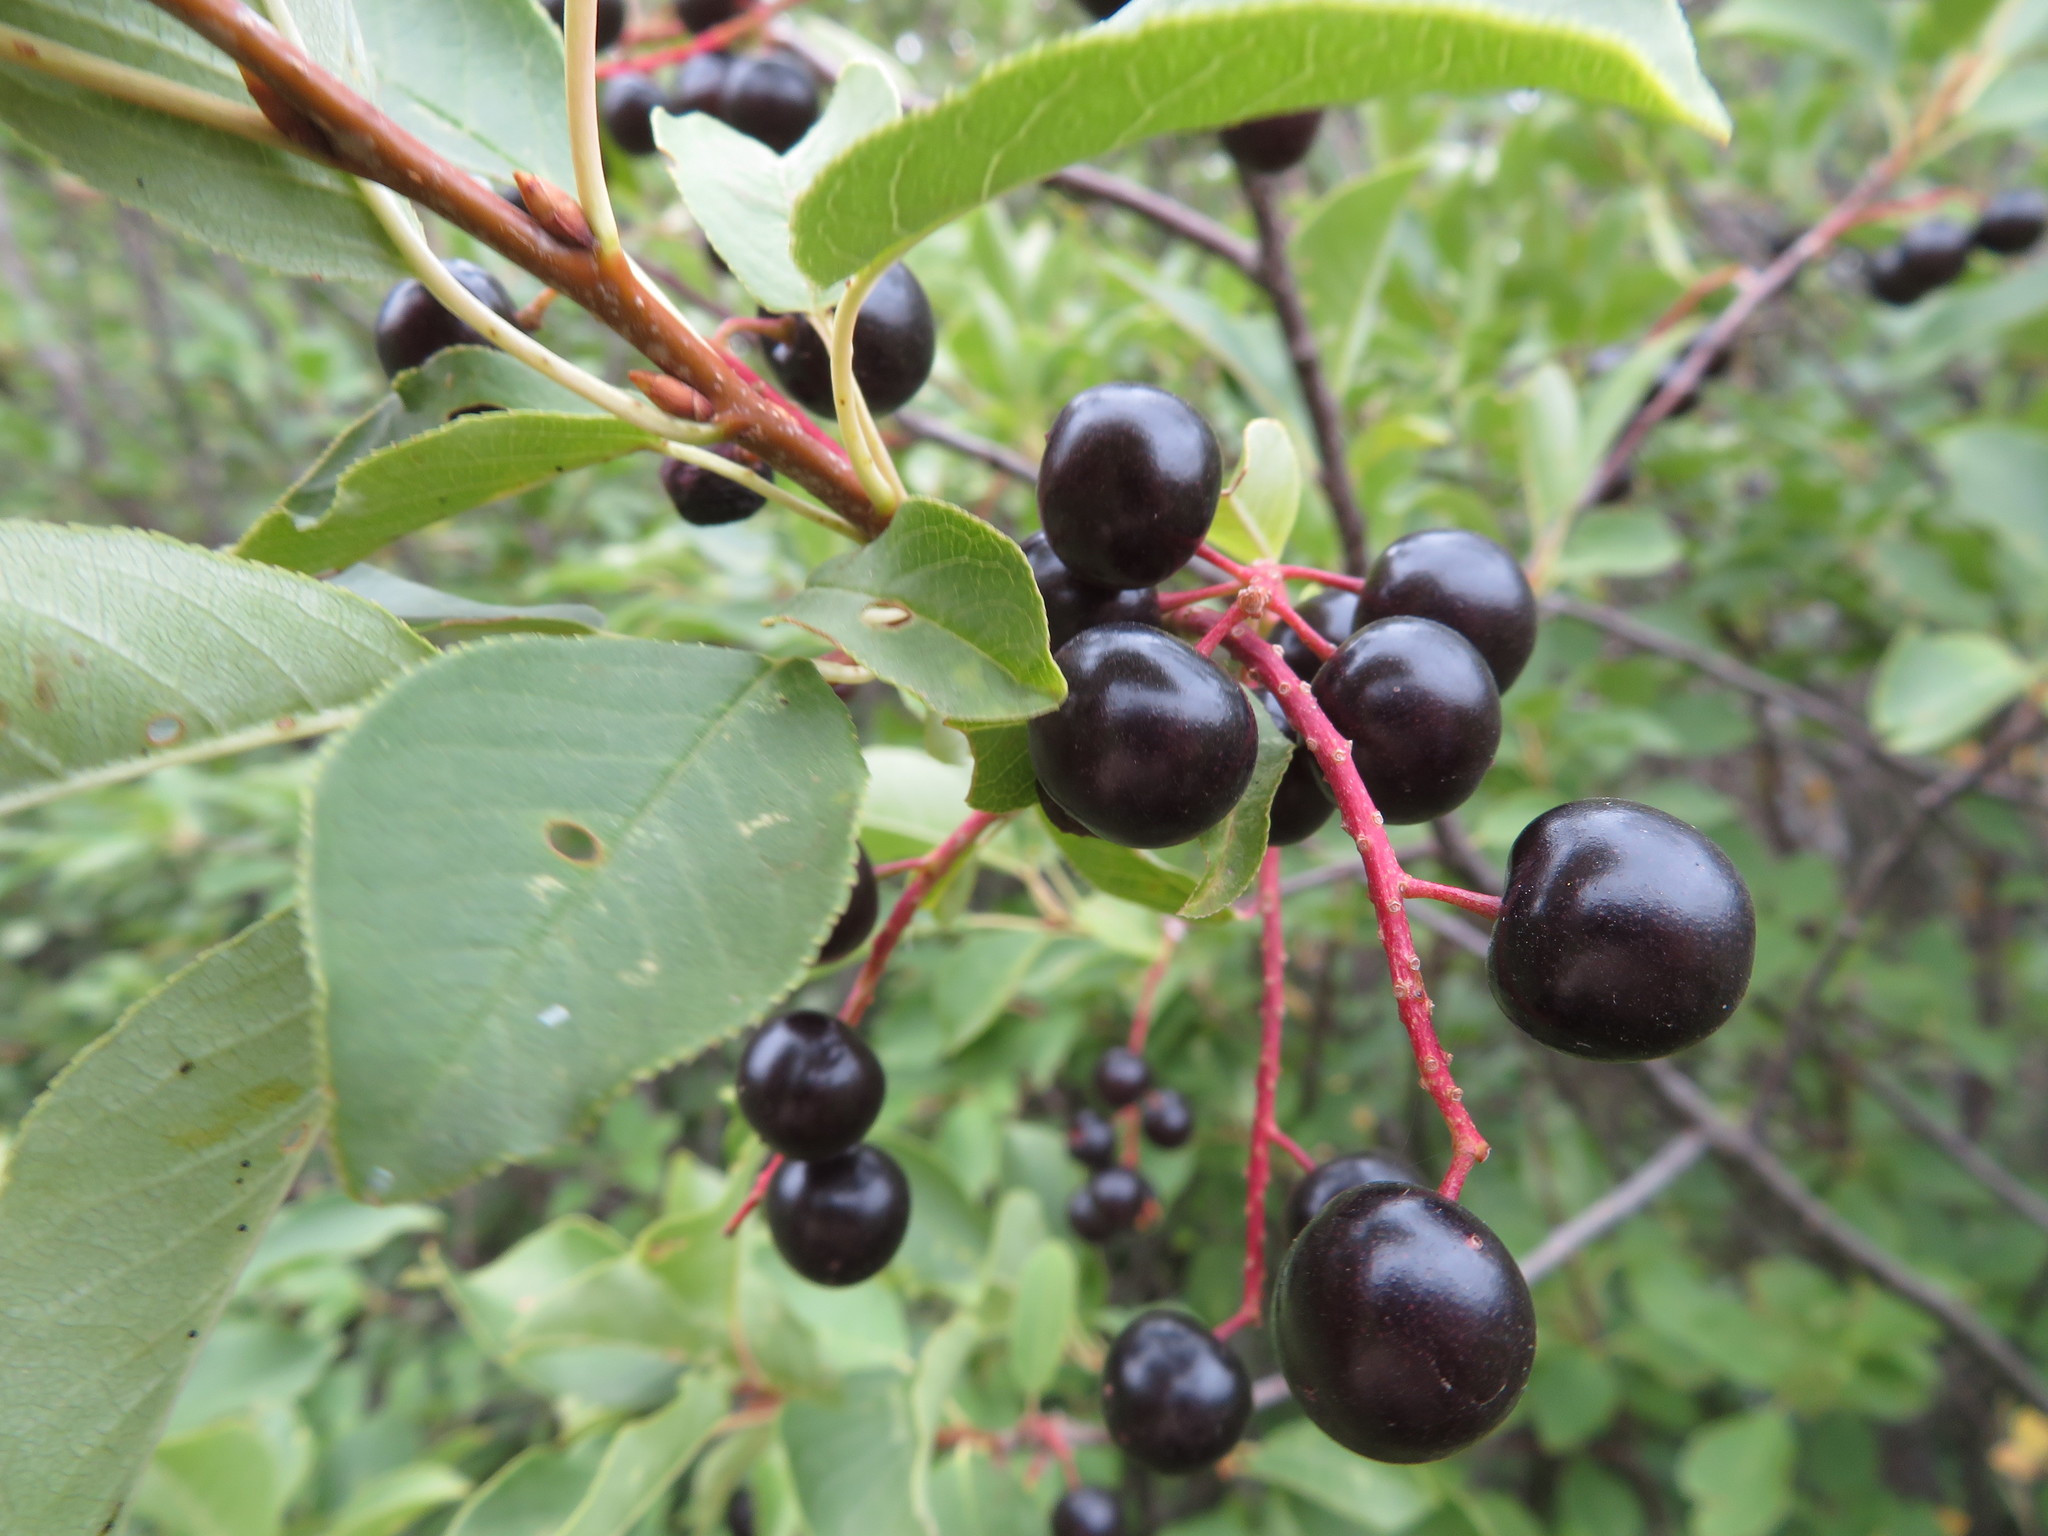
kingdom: Plantae
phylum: Tracheophyta
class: Magnoliopsida
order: Rosales
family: Rosaceae
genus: Prunus
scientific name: Prunus virginiana
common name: Chokecherry
